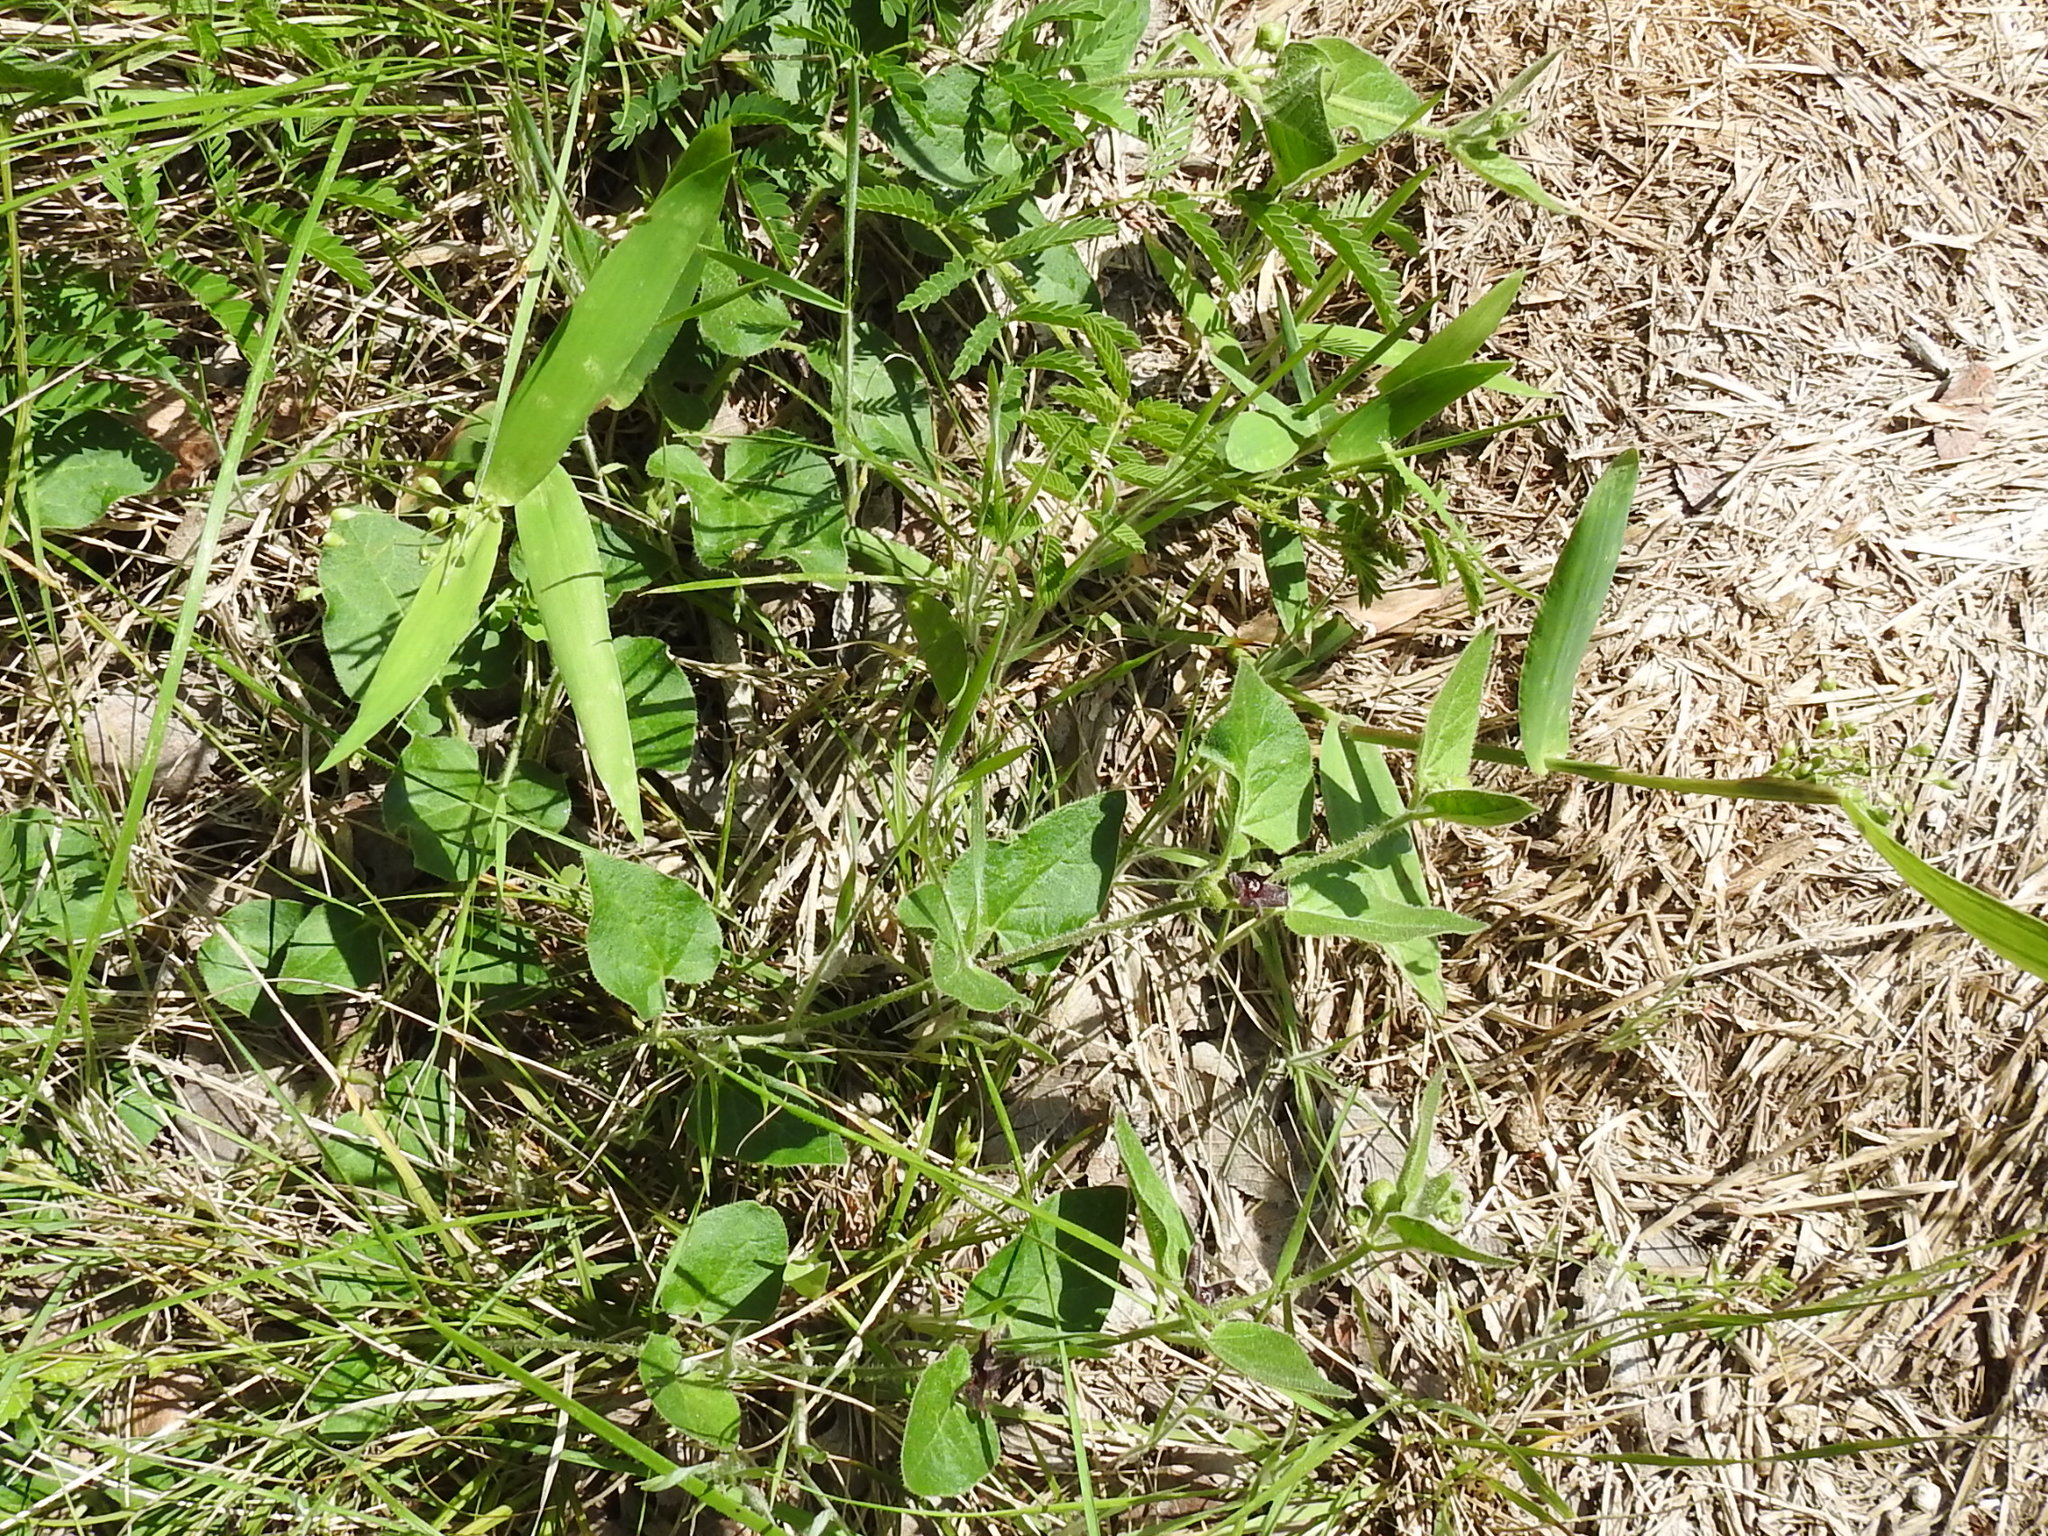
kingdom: Plantae
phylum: Tracheophyta
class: Magnoliopsida
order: Gentianales
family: Apocynaceae
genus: Chthamalia
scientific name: Chthamalia biflora
